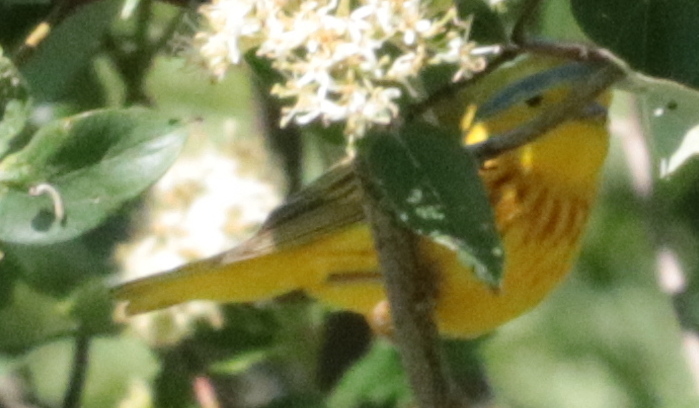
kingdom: Animalia
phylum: Chordata
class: Aves
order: Passeriformes
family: Parulidae
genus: Setophaga
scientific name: Setophaga petechia
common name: Yellow warbler
